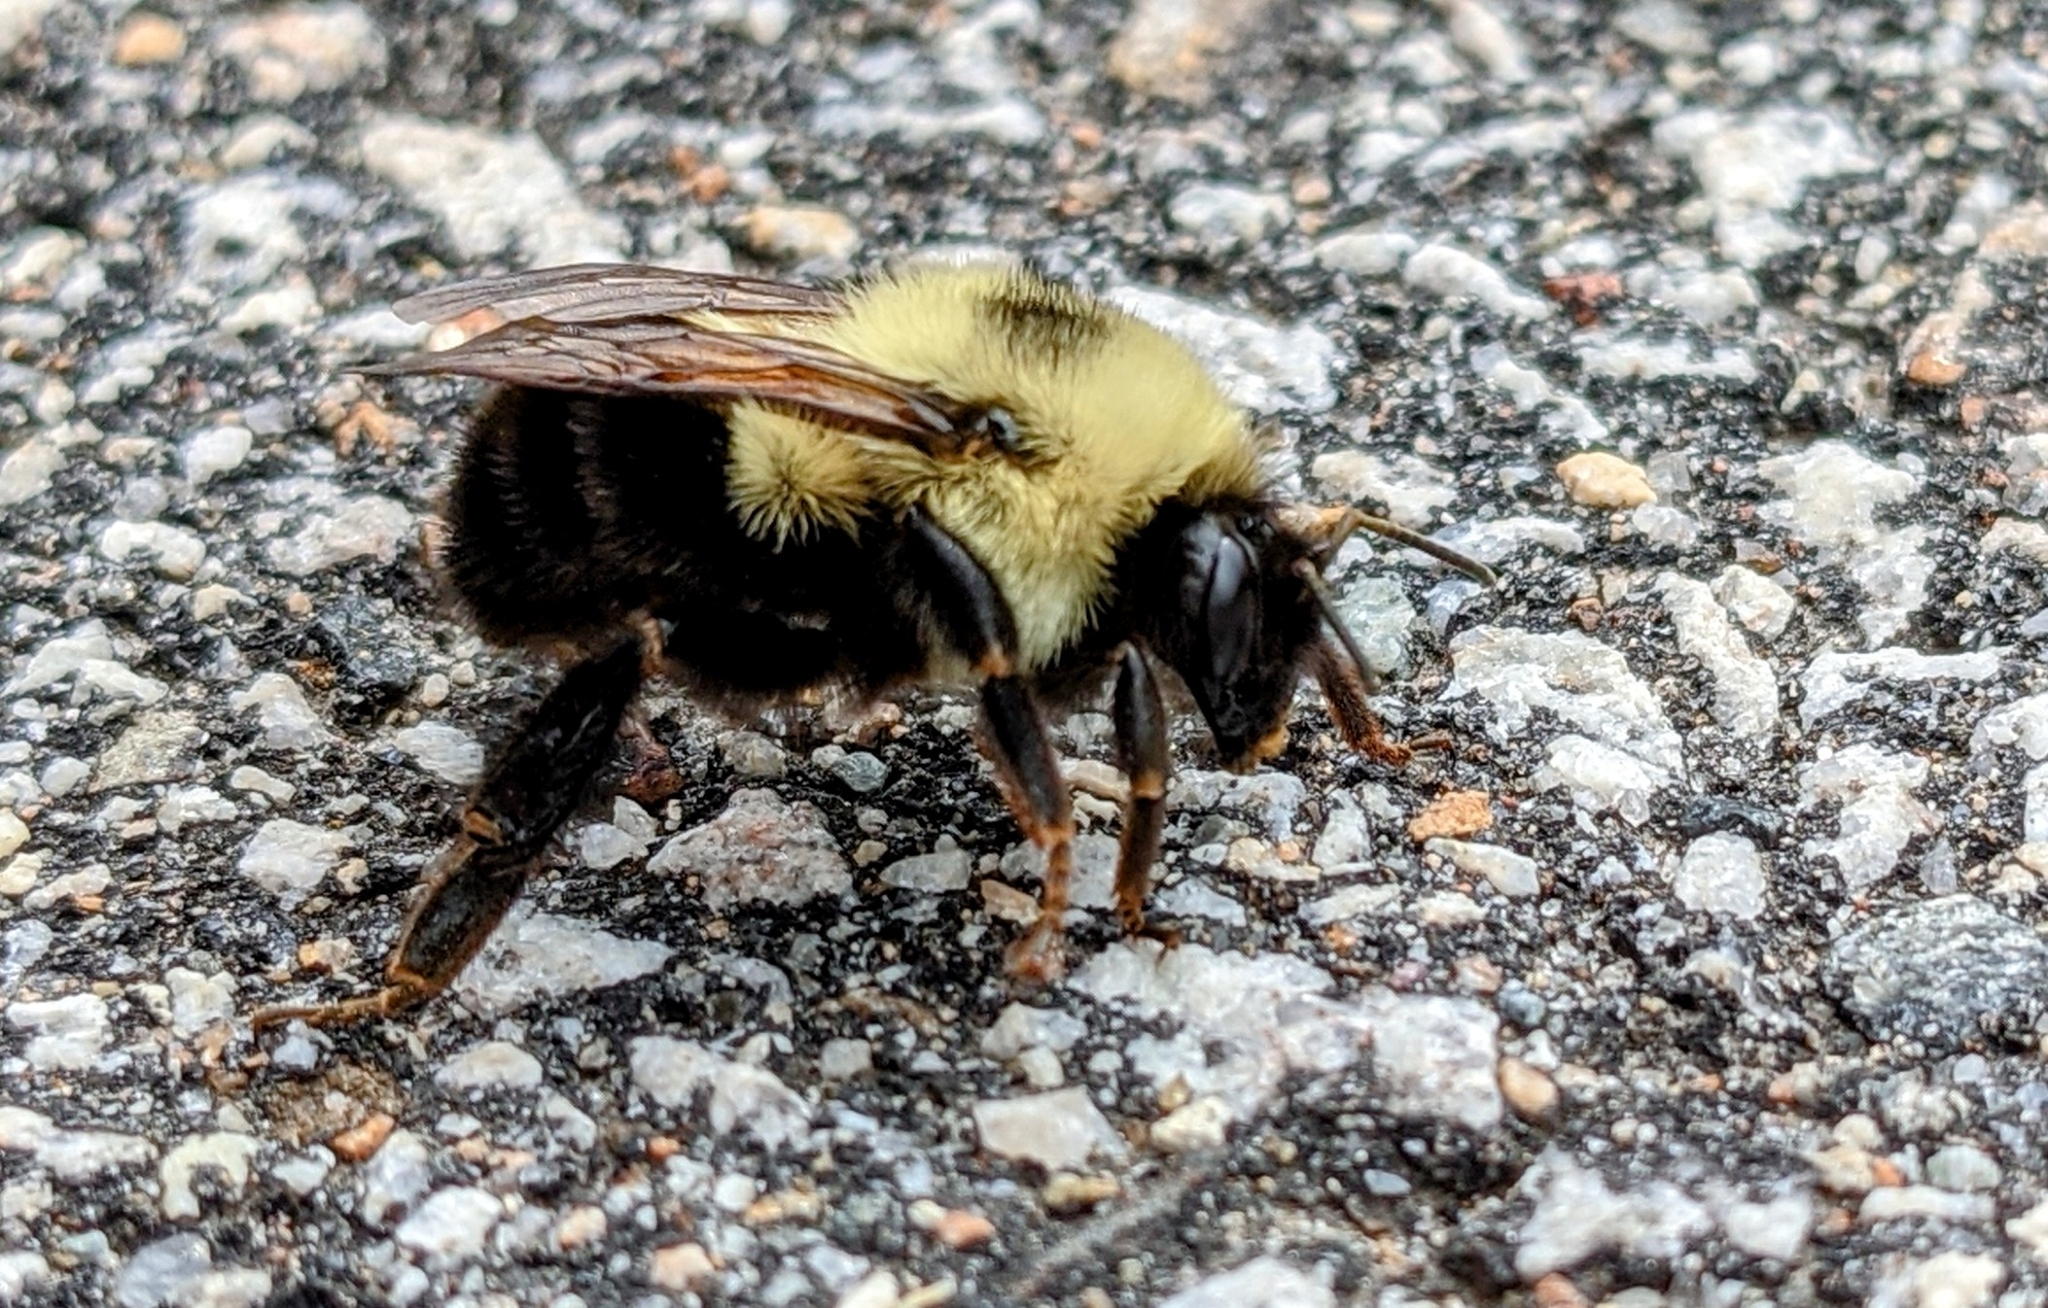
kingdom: Animalia
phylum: Arthropoda
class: Insecta
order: Hymenoptera
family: Apidae
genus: Bombus
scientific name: Bombus bimaculatus
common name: Two-spotted bumble bee
